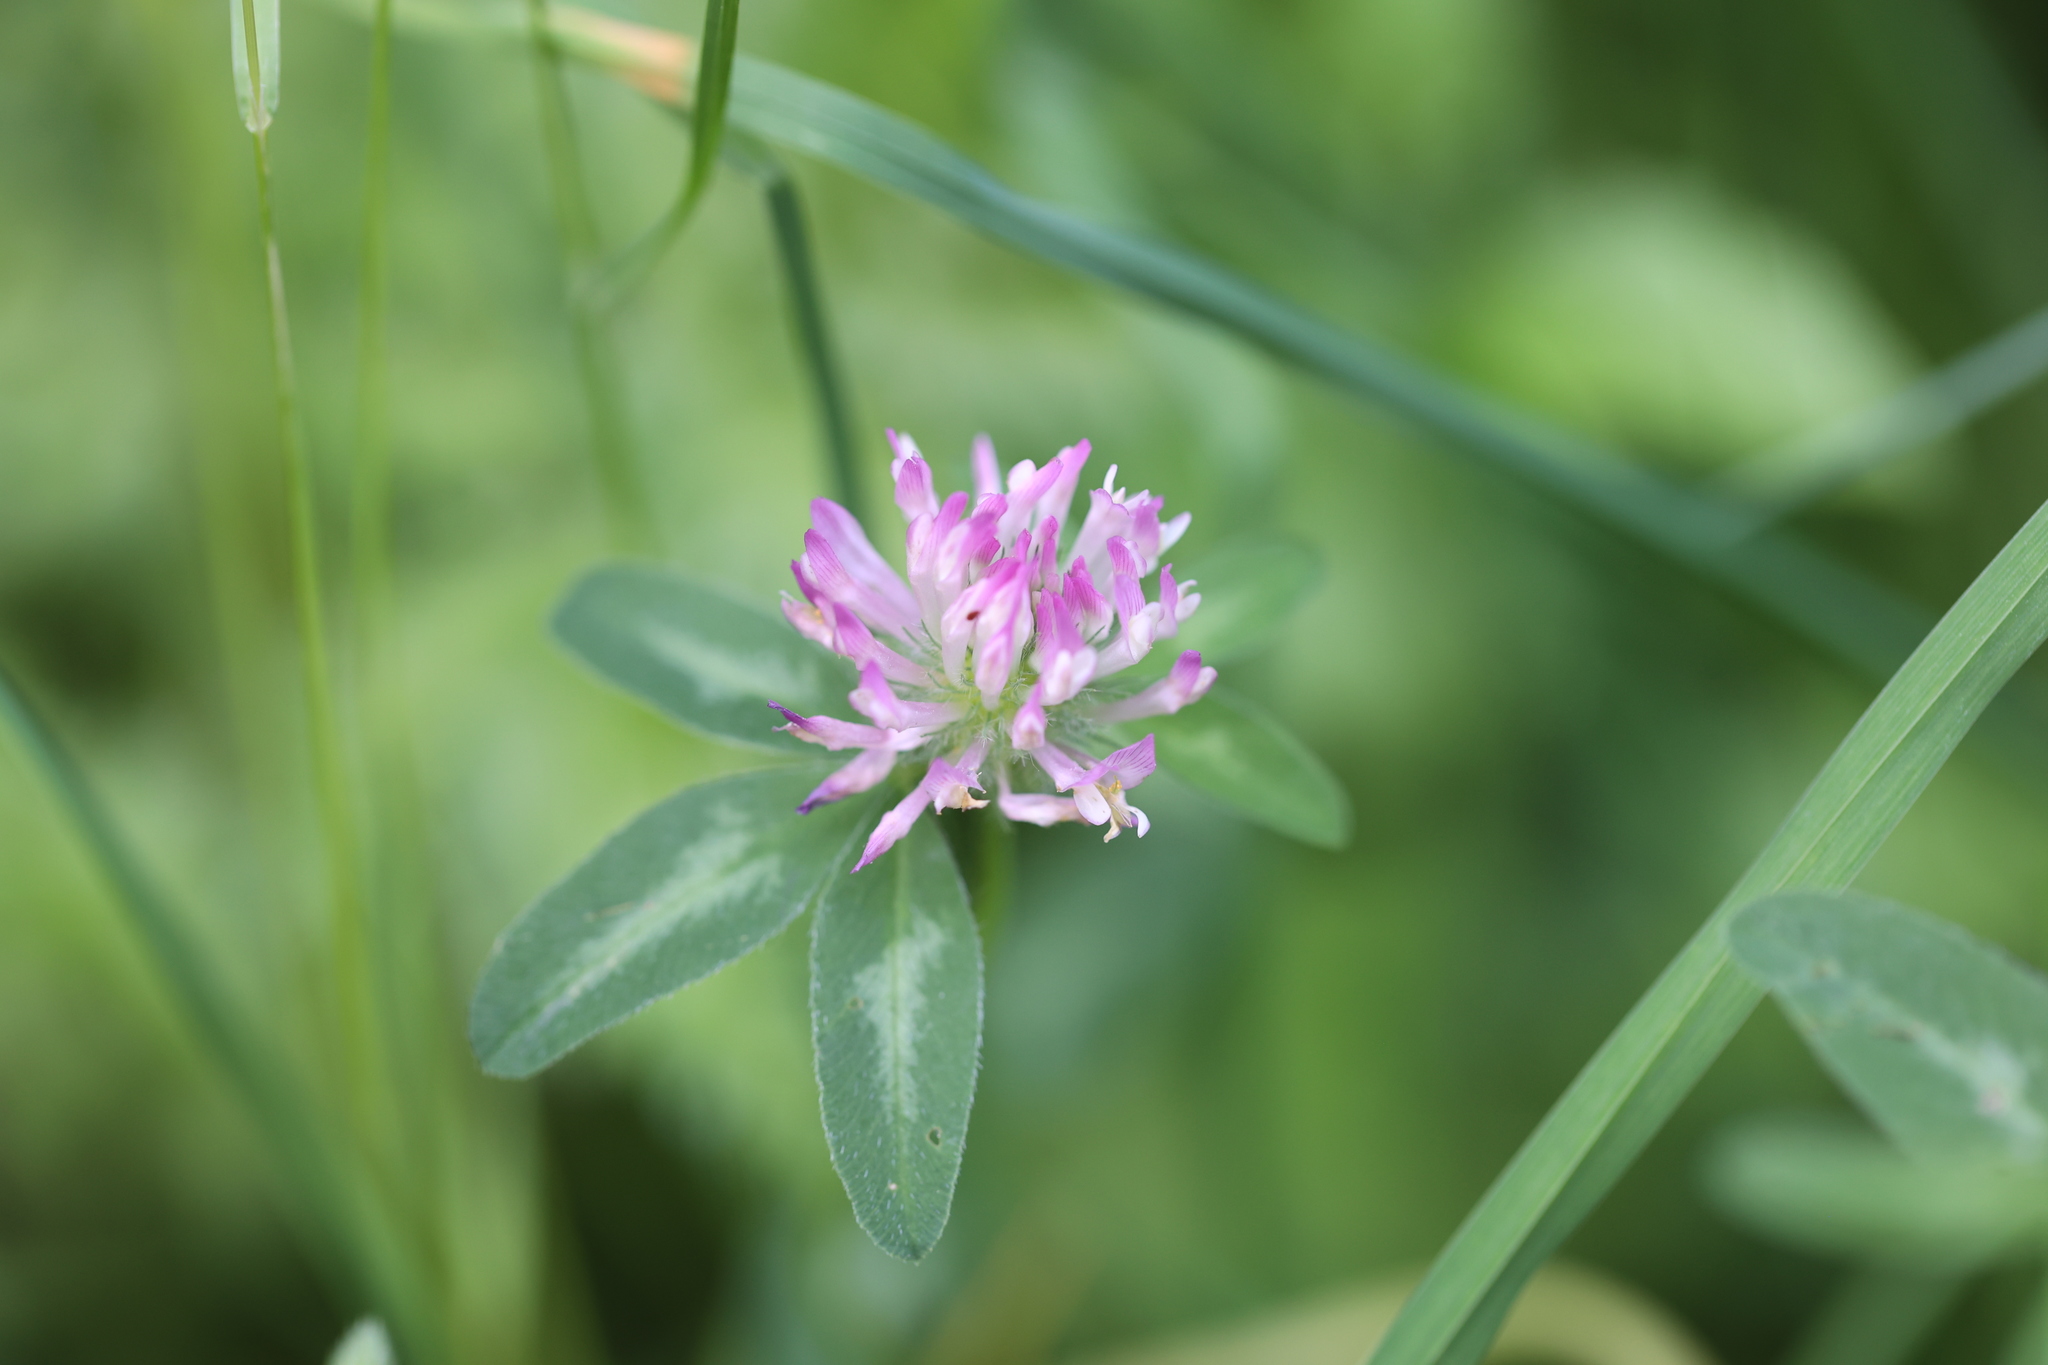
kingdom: Plantae
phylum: Tracheophyta
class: Magnoliopsida
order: Fabales
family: Fabaceae
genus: Trifolium
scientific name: Trifolium pratense
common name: Red clover
